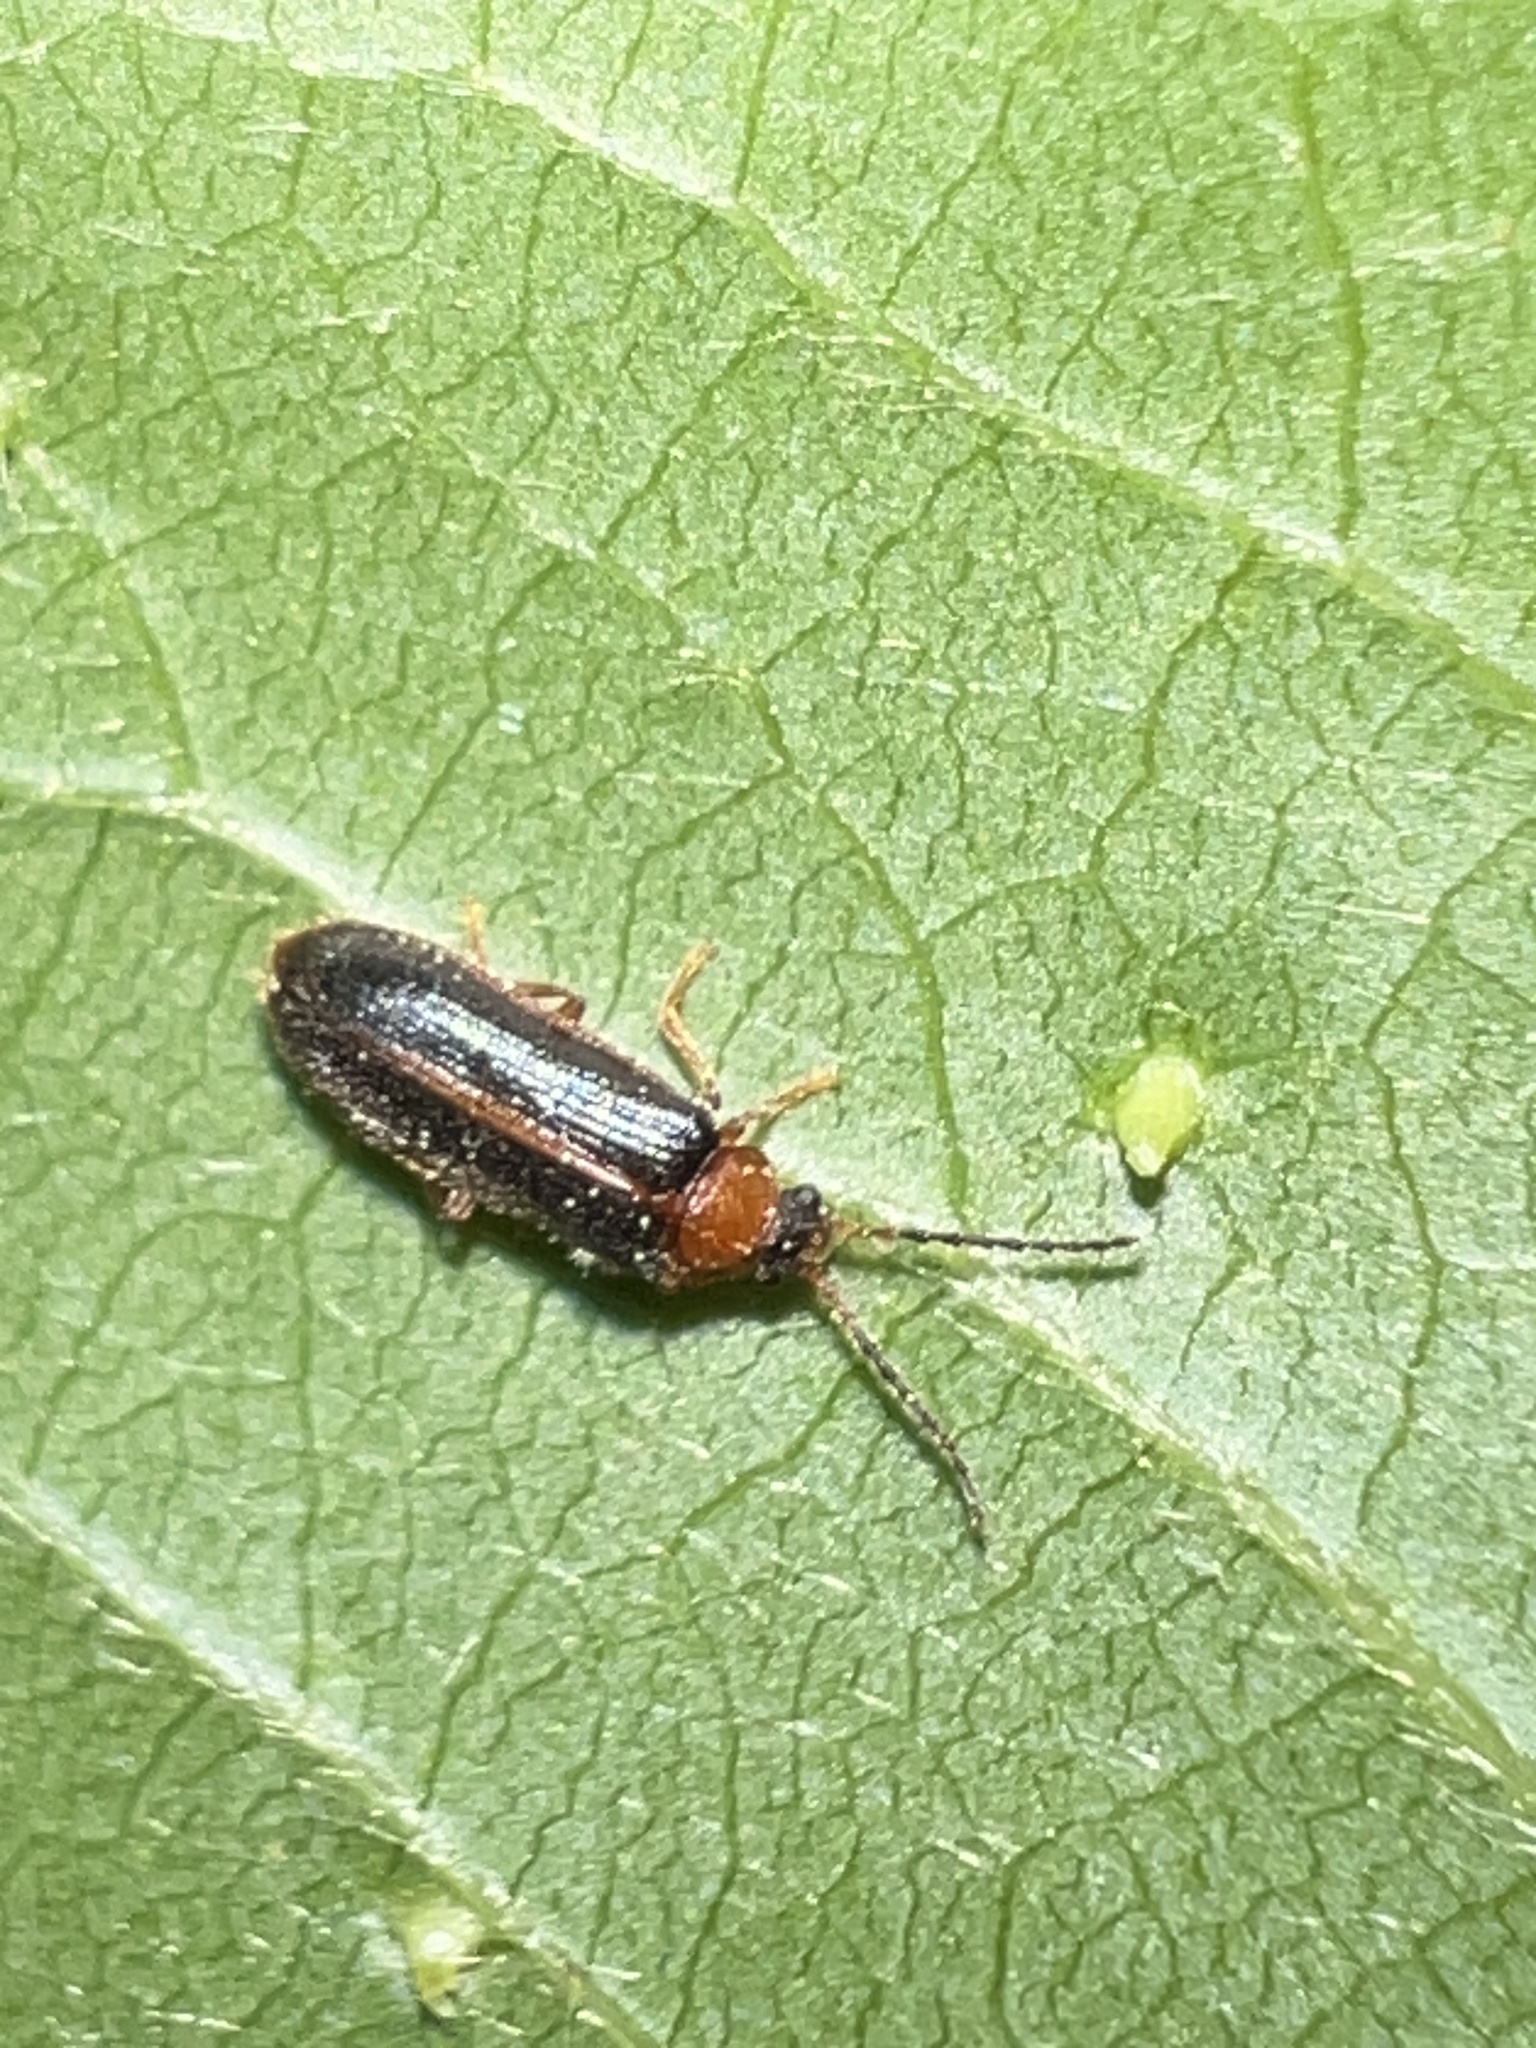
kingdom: Animalia
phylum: Arthropoda
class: Insecta
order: Coleoptera
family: Omethidae
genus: Omethes
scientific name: Omethes marginatus
